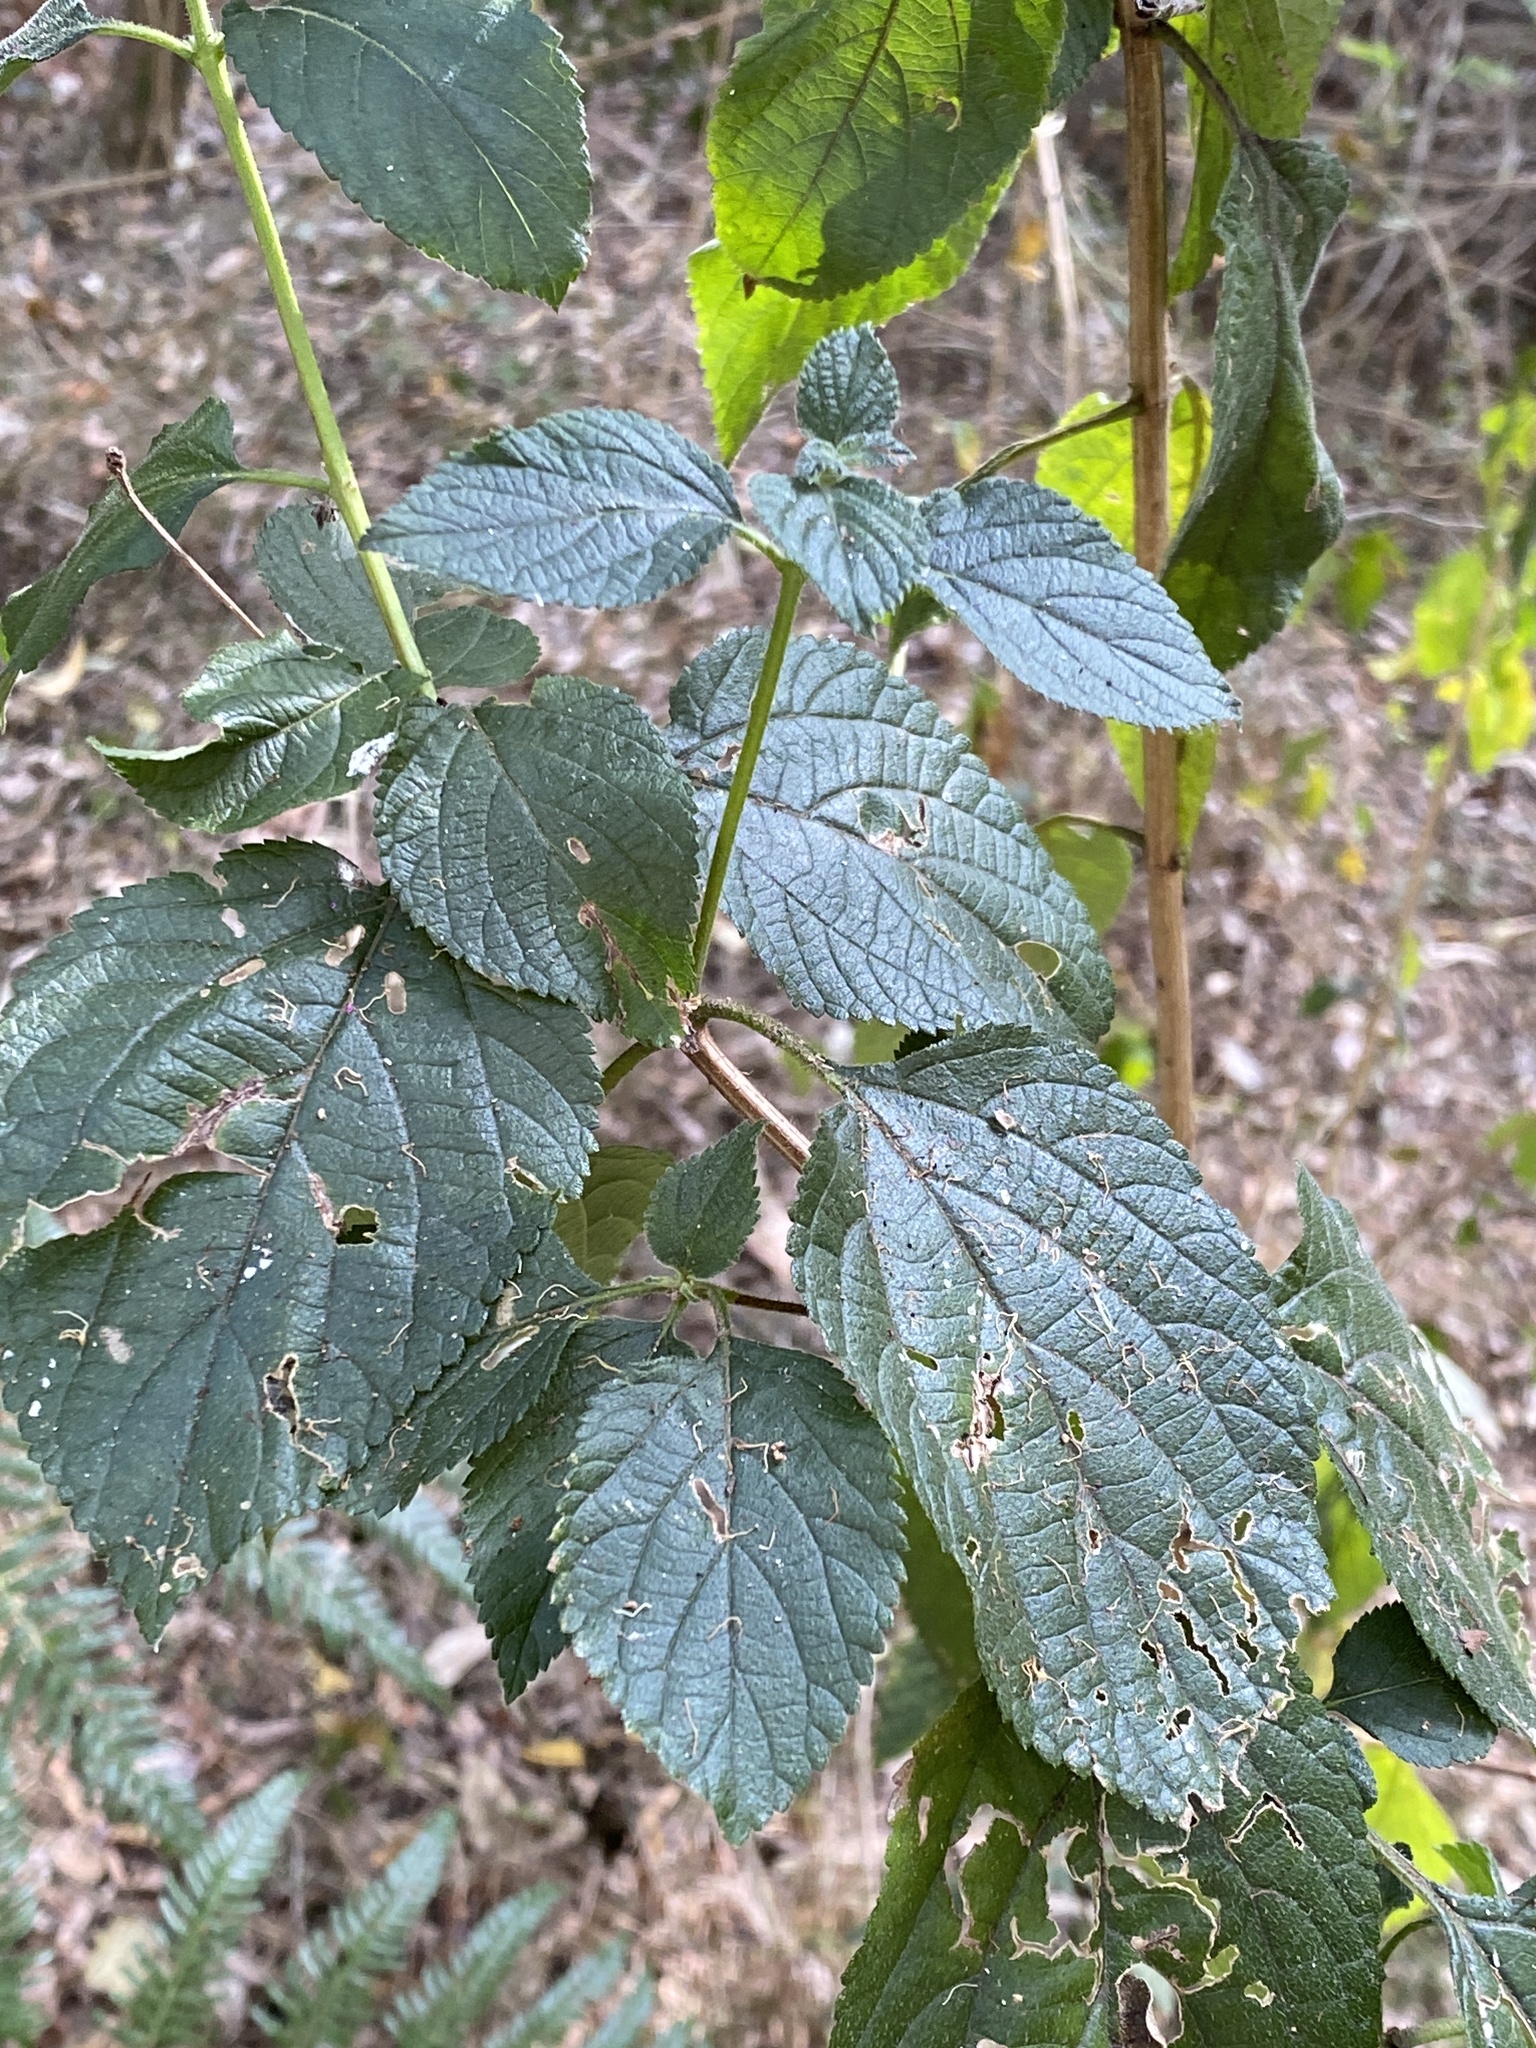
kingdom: Plantae
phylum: Tracheophyta
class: Magnoliopsida
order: Lamiales
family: Verbenaceae
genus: Lantana
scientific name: Lantana camara
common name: Lantana
